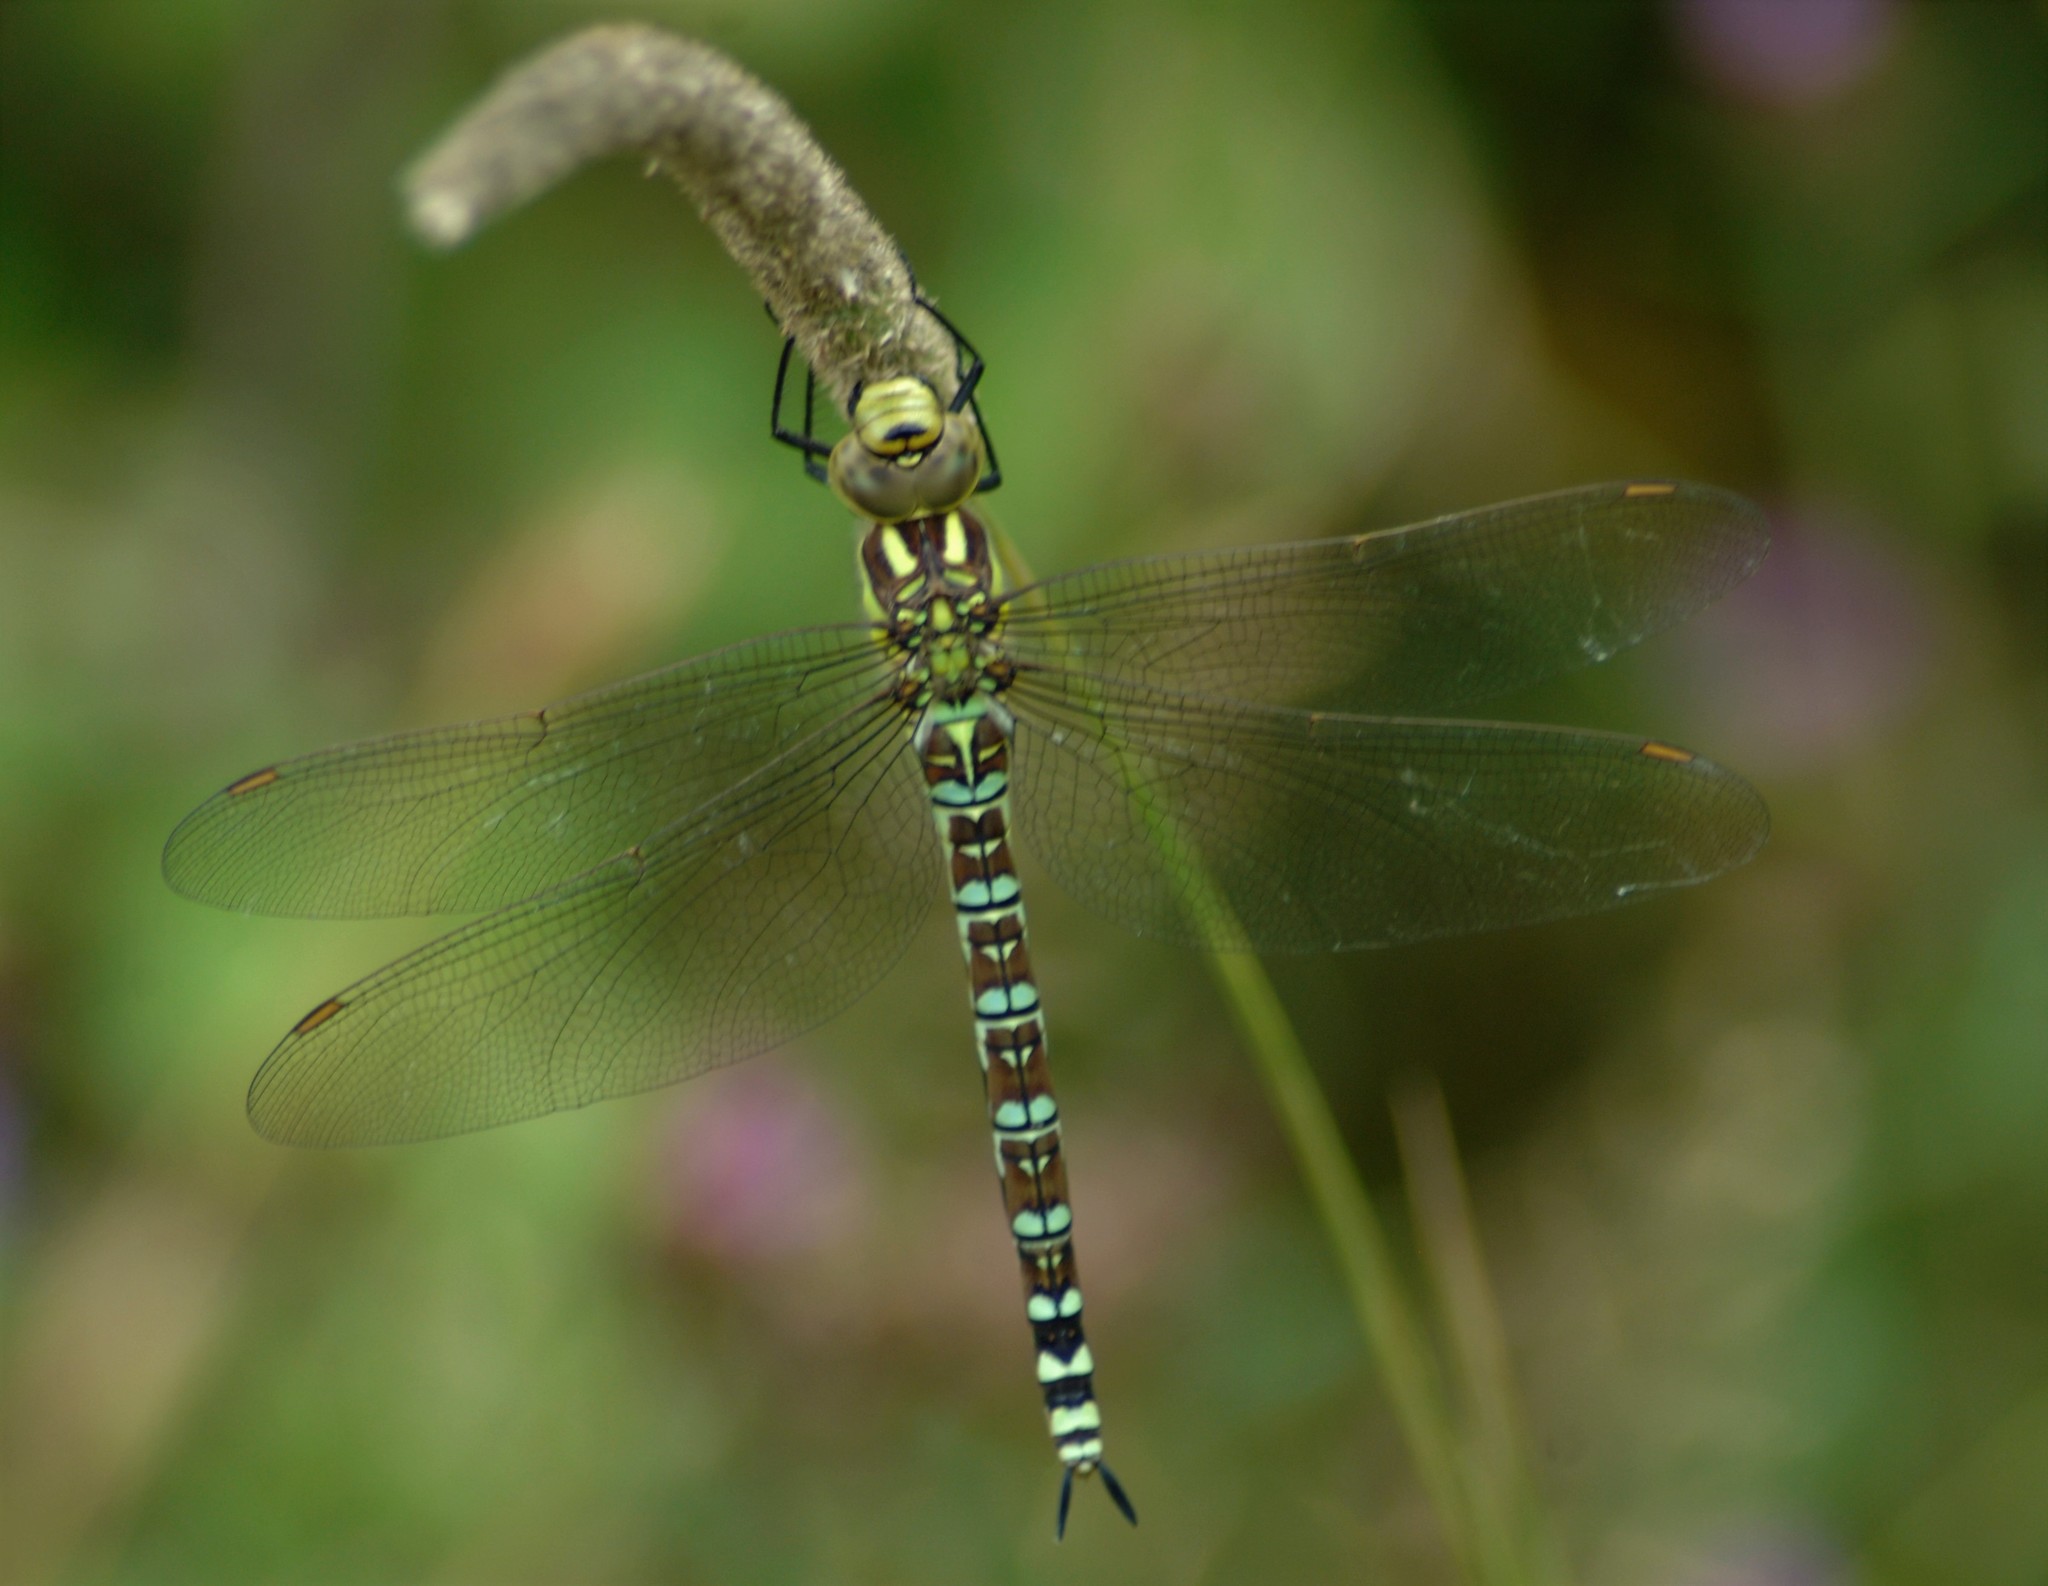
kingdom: Animalia
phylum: Arthropoda
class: Insecta
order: Odonata
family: Aeshnidae
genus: Aeshna
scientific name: Aeshna cyanea
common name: Southern hawker
